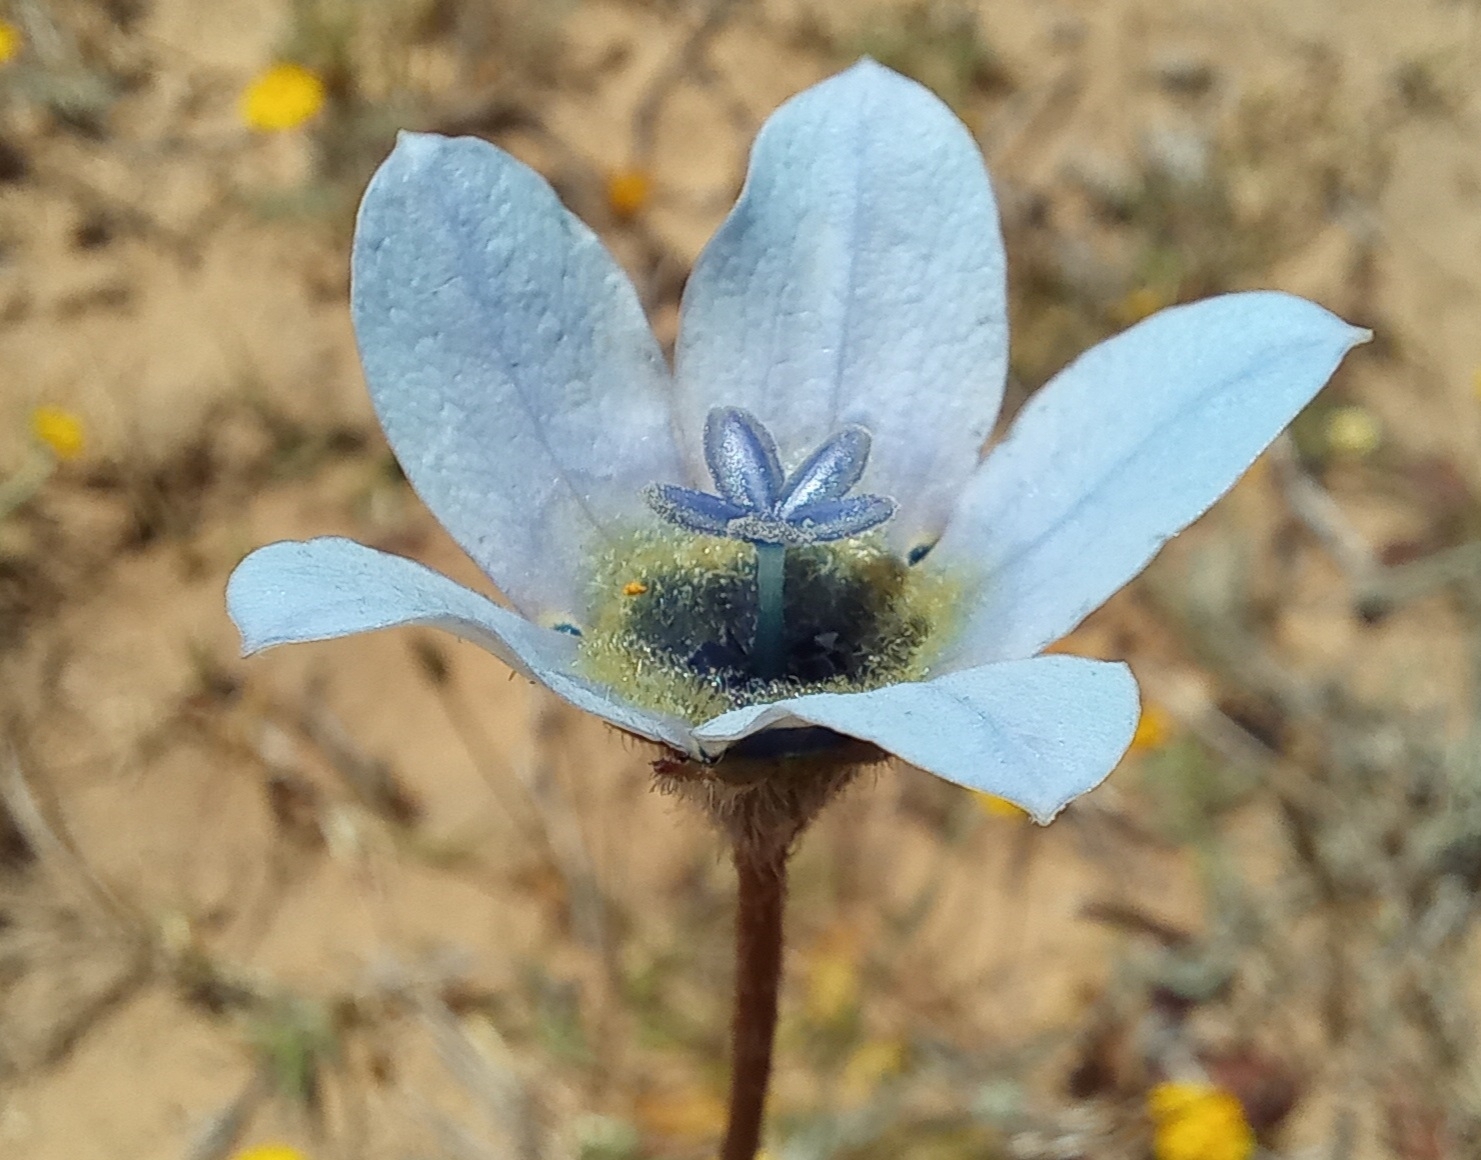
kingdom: Plantae
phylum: Tracheophyta
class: Magnoliopsida
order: Asterales
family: Campanulaceae
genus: Wahlenbergia
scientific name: Wahlenbergia capensis
